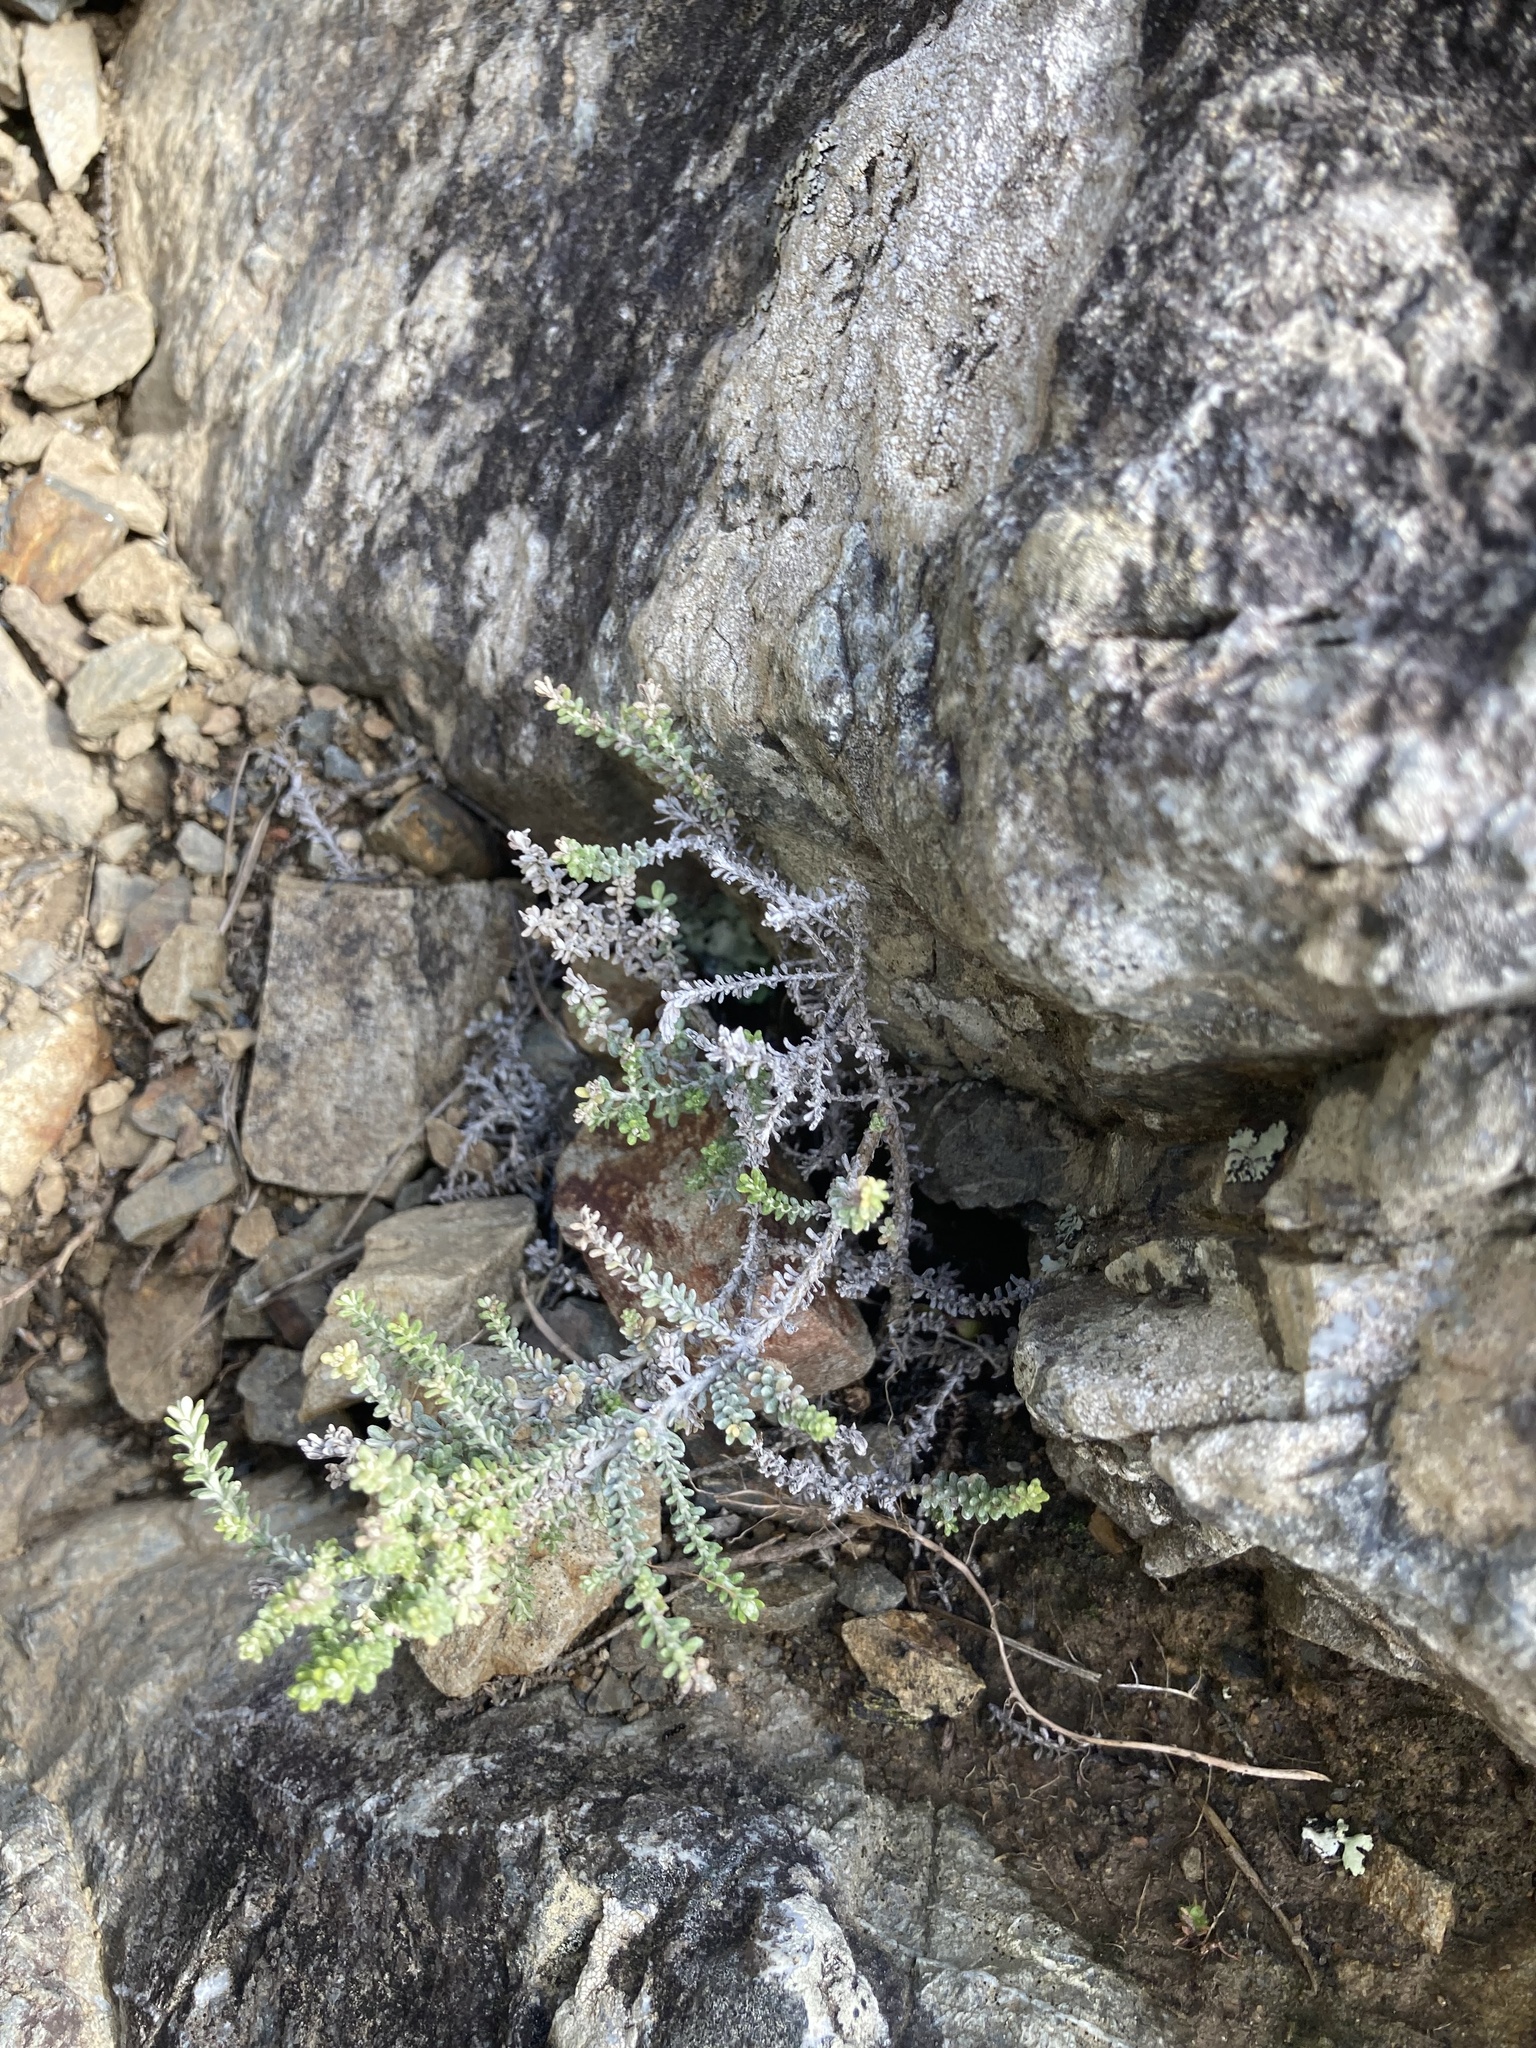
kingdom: Plantae
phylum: Tracheophyta
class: Magnoliopsida
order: Asterales
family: Asteraceae
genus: Ozothamnus
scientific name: Ozothamnus leptophyllus
